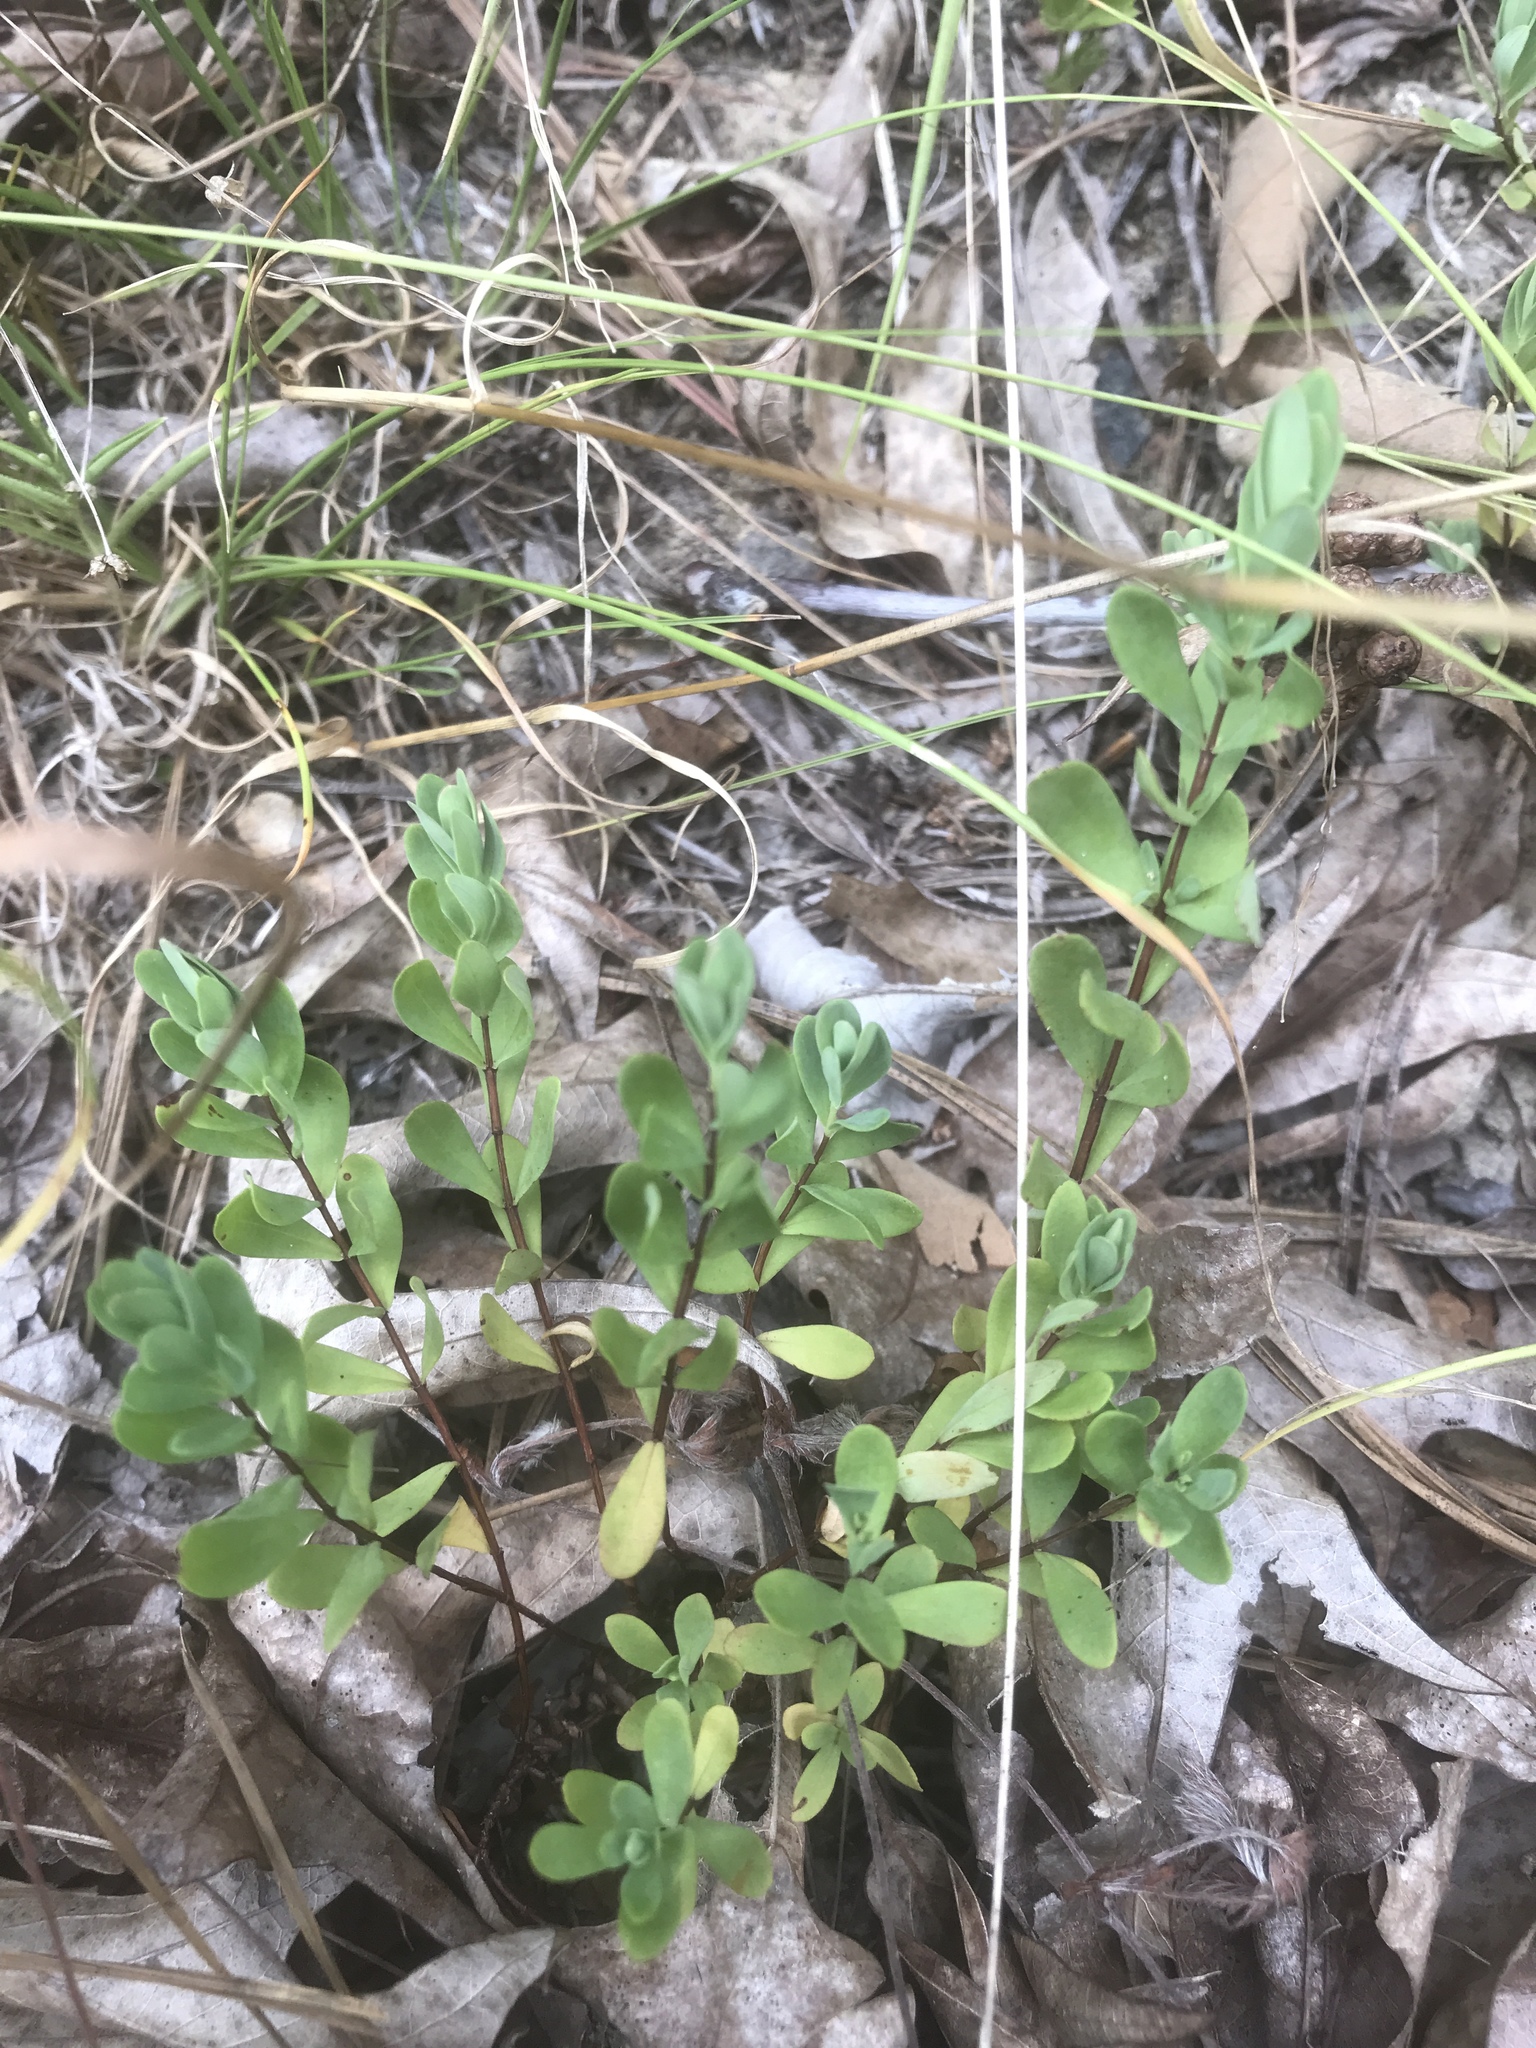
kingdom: Plantae
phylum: Tracheophyta
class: Magnoliopsida
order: Malpighiales
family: Hypericaceae
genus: Hypericum
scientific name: Hypericum hypericoides
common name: St. andrew's cross
